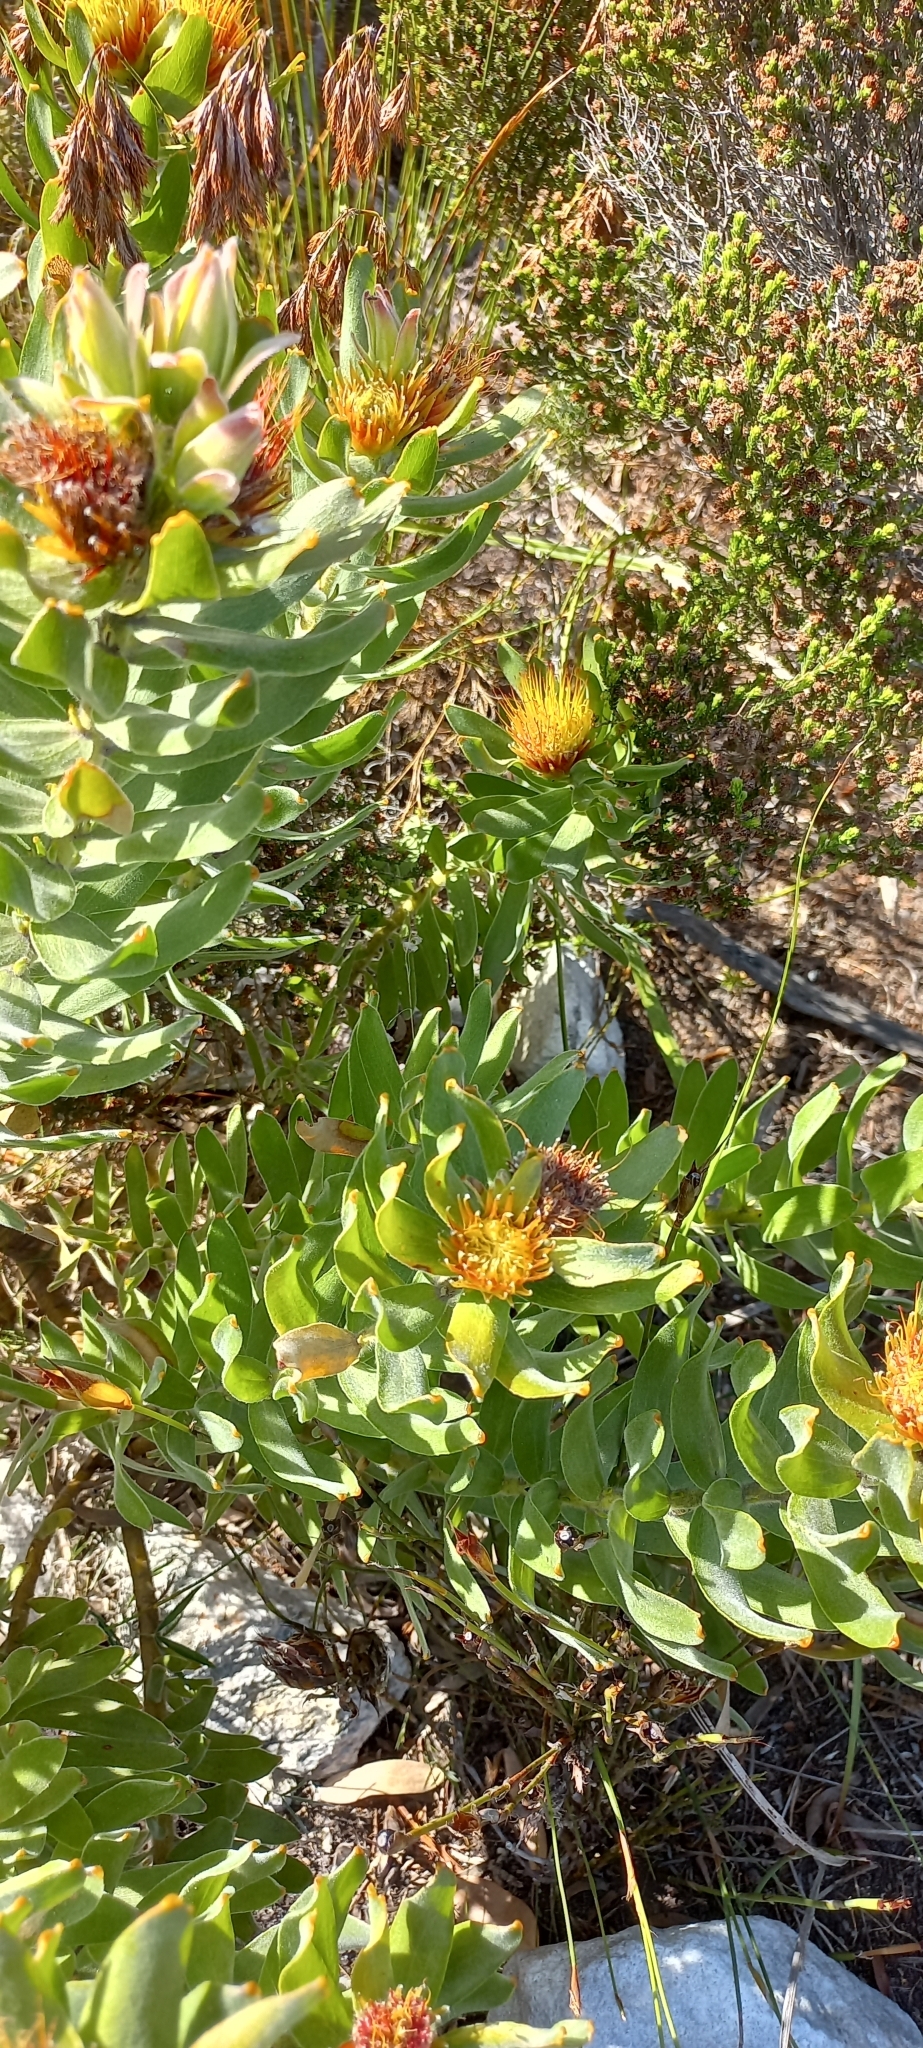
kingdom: Plantae
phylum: Tracheophyta
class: Magnoliopsida
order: Proteales
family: Proteaceae
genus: Leucospermum
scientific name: Leucospermum oleifolium
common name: Matches
